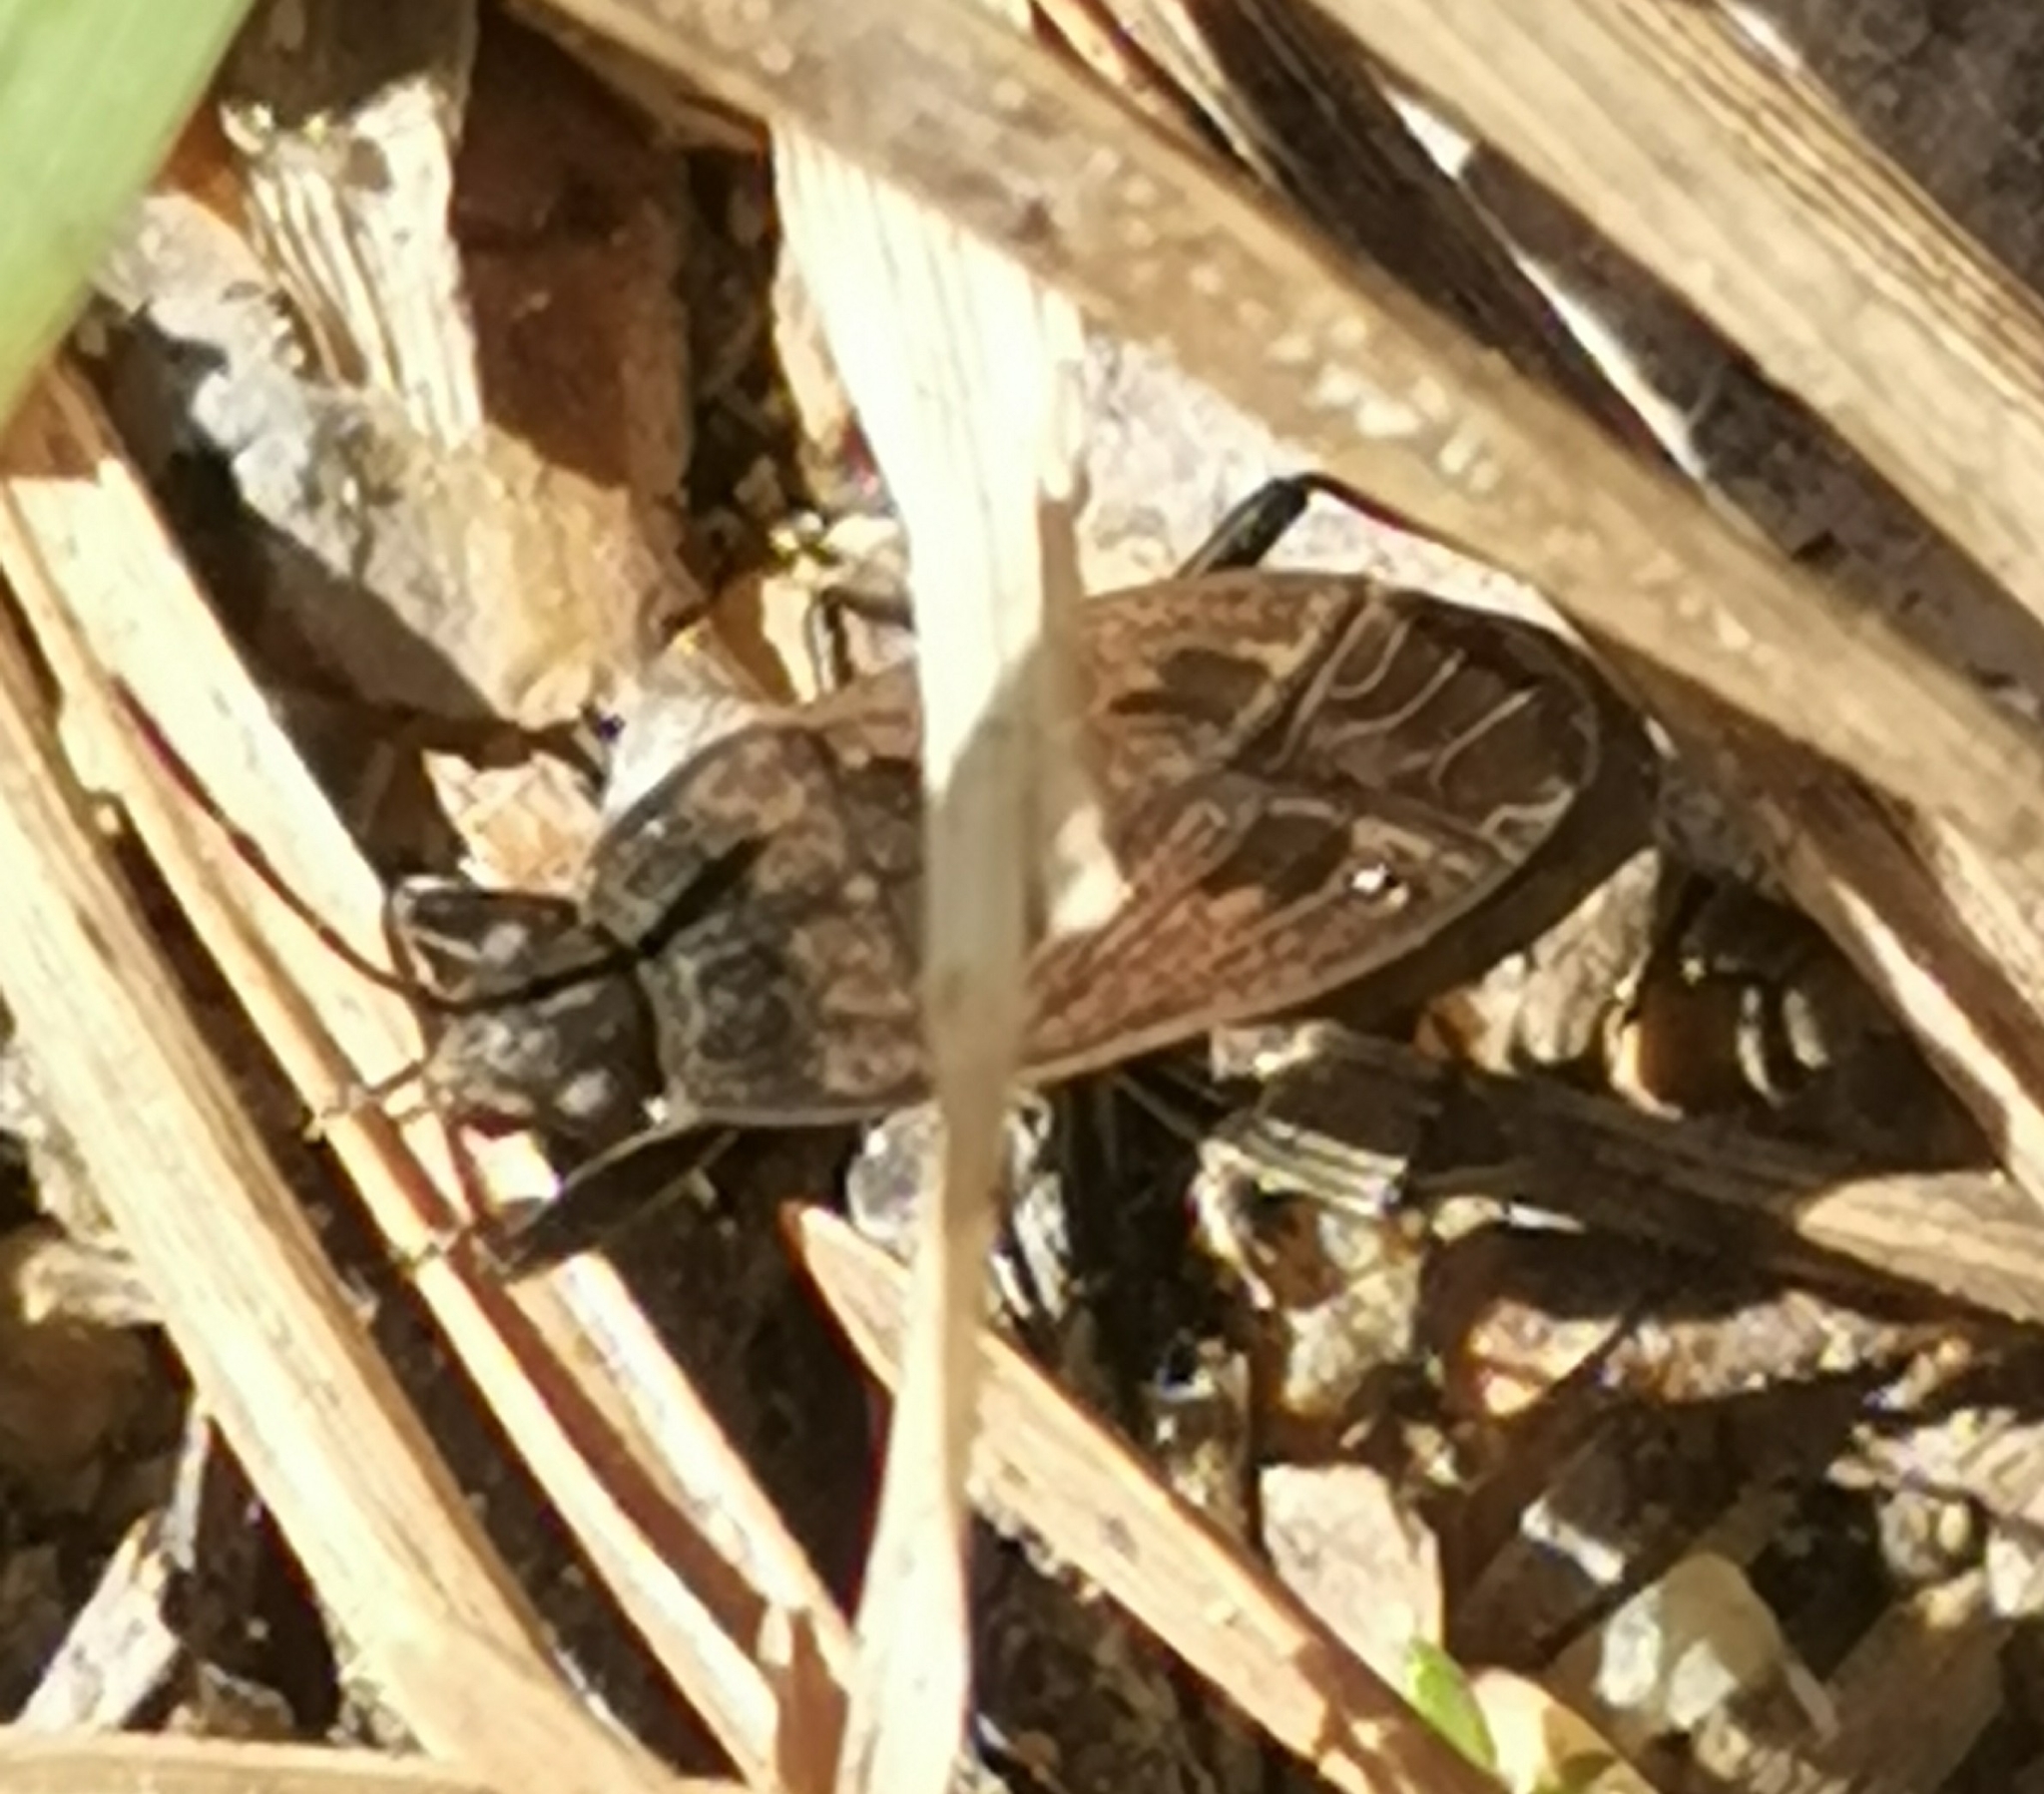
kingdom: Animalia
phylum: Arthropoda
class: Insecta
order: Hemiptera
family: Rhyparochromidae
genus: Rhyparochromus
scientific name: Rhyparochromus pini
